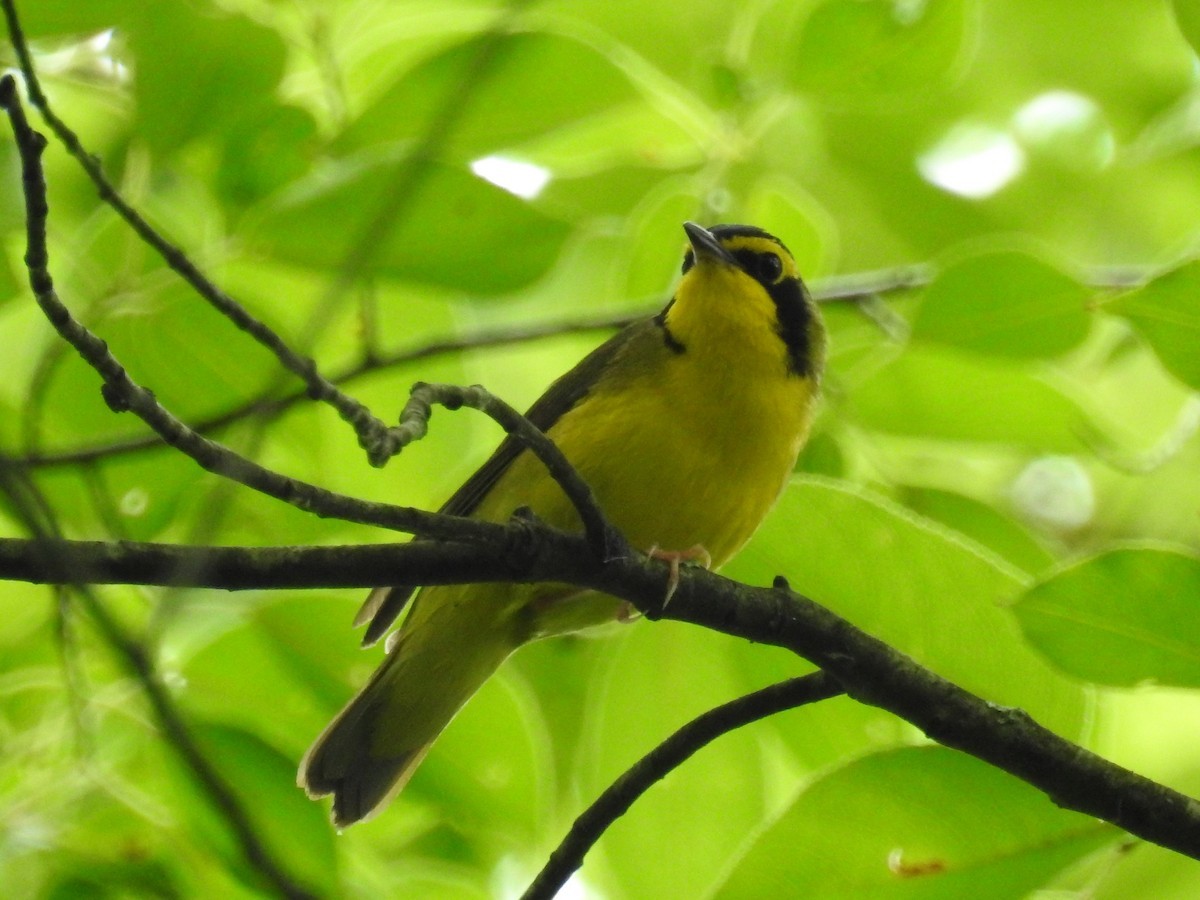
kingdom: Animalia
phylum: Chordata
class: Aves
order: Passeriformes
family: Parulidae
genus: Geothlypis
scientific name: Geothlypis formosa
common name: Kentucky warbler
